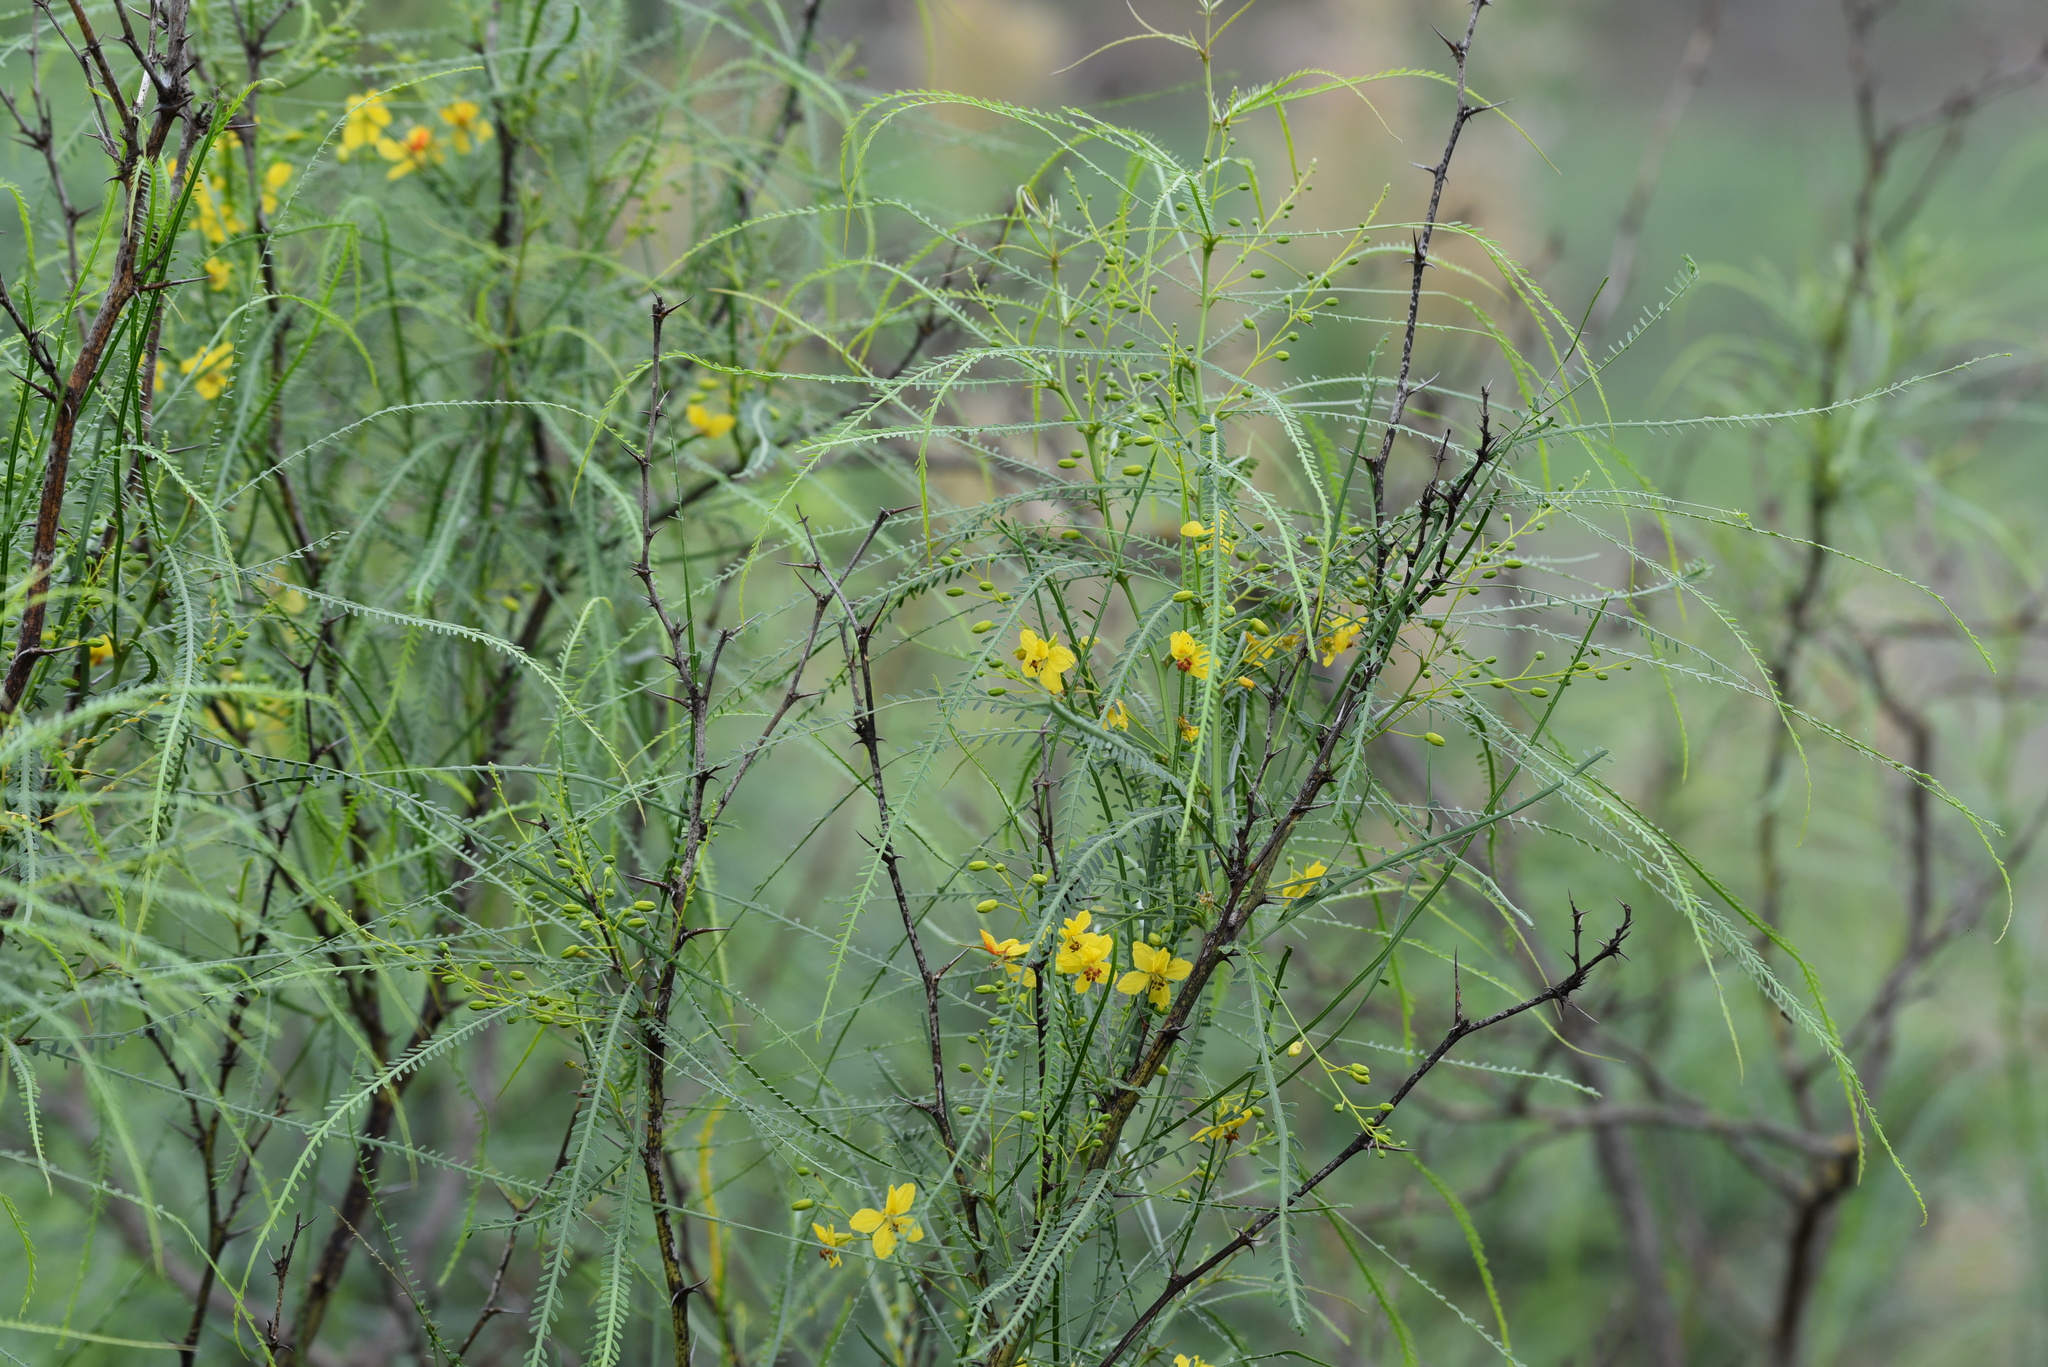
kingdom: Plantae
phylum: Tracheophyta
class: Magnoliopsida
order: Fabales
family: Fabaceae
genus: Parkinsonia
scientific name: Parkinsonia aculeata
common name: Jerusalem thorn
